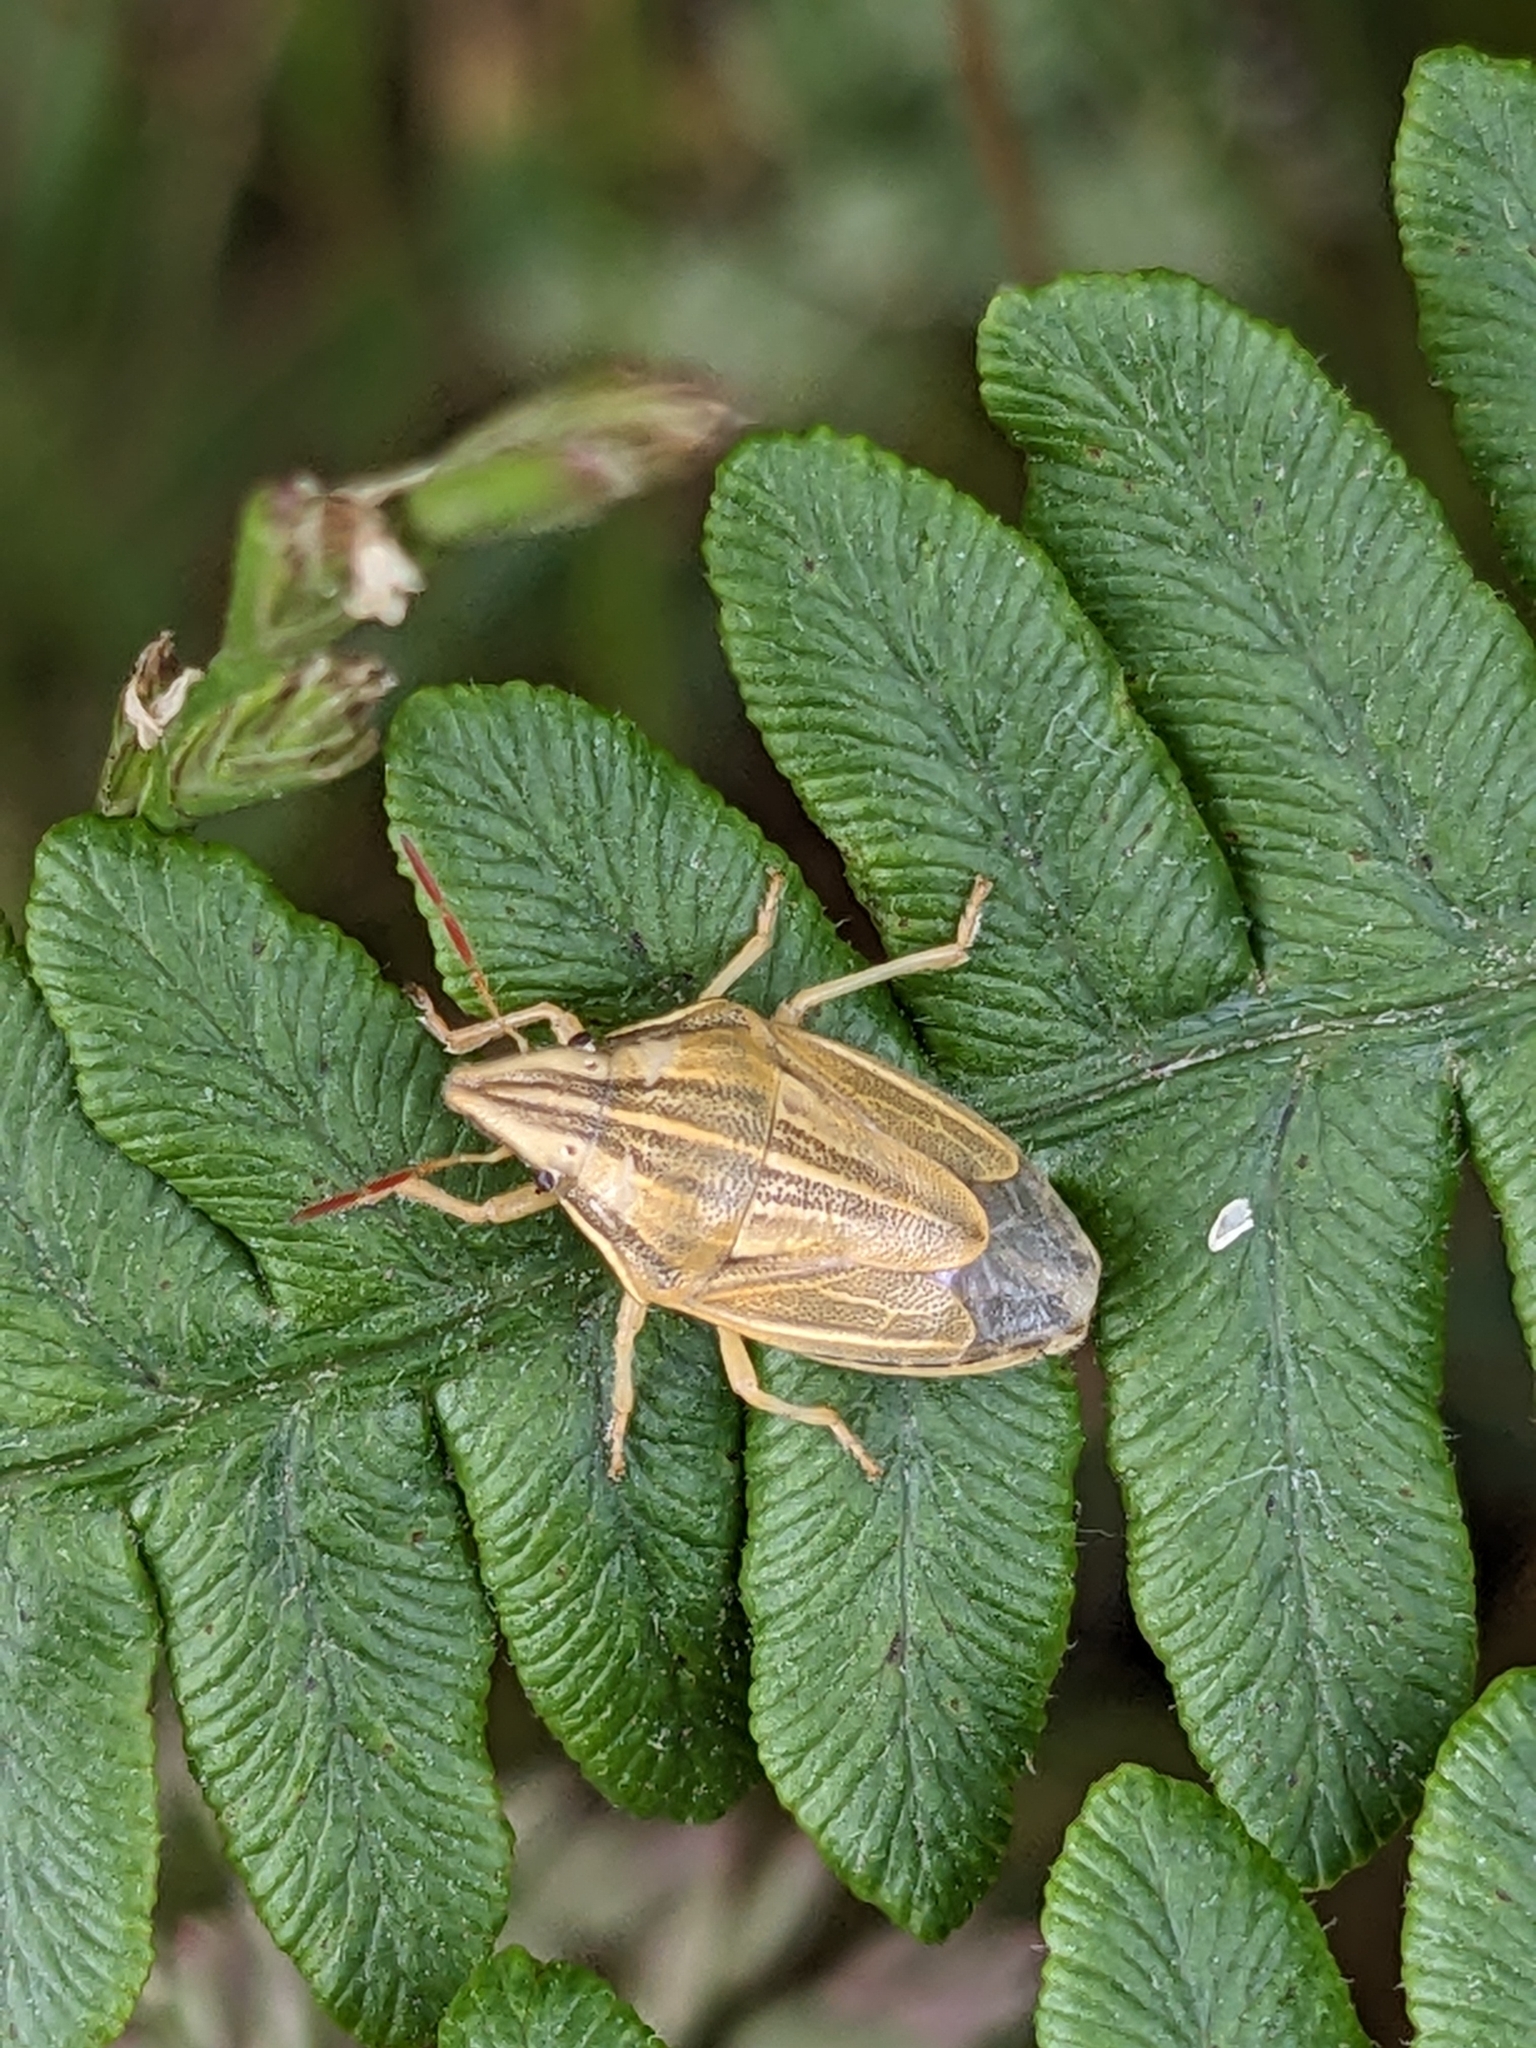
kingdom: Animalia
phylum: Arthropoda
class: Insecta
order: Hemiptera
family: Pentatomidae
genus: Aelia
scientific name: Aelia acuminata
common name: Bishop's mitre
